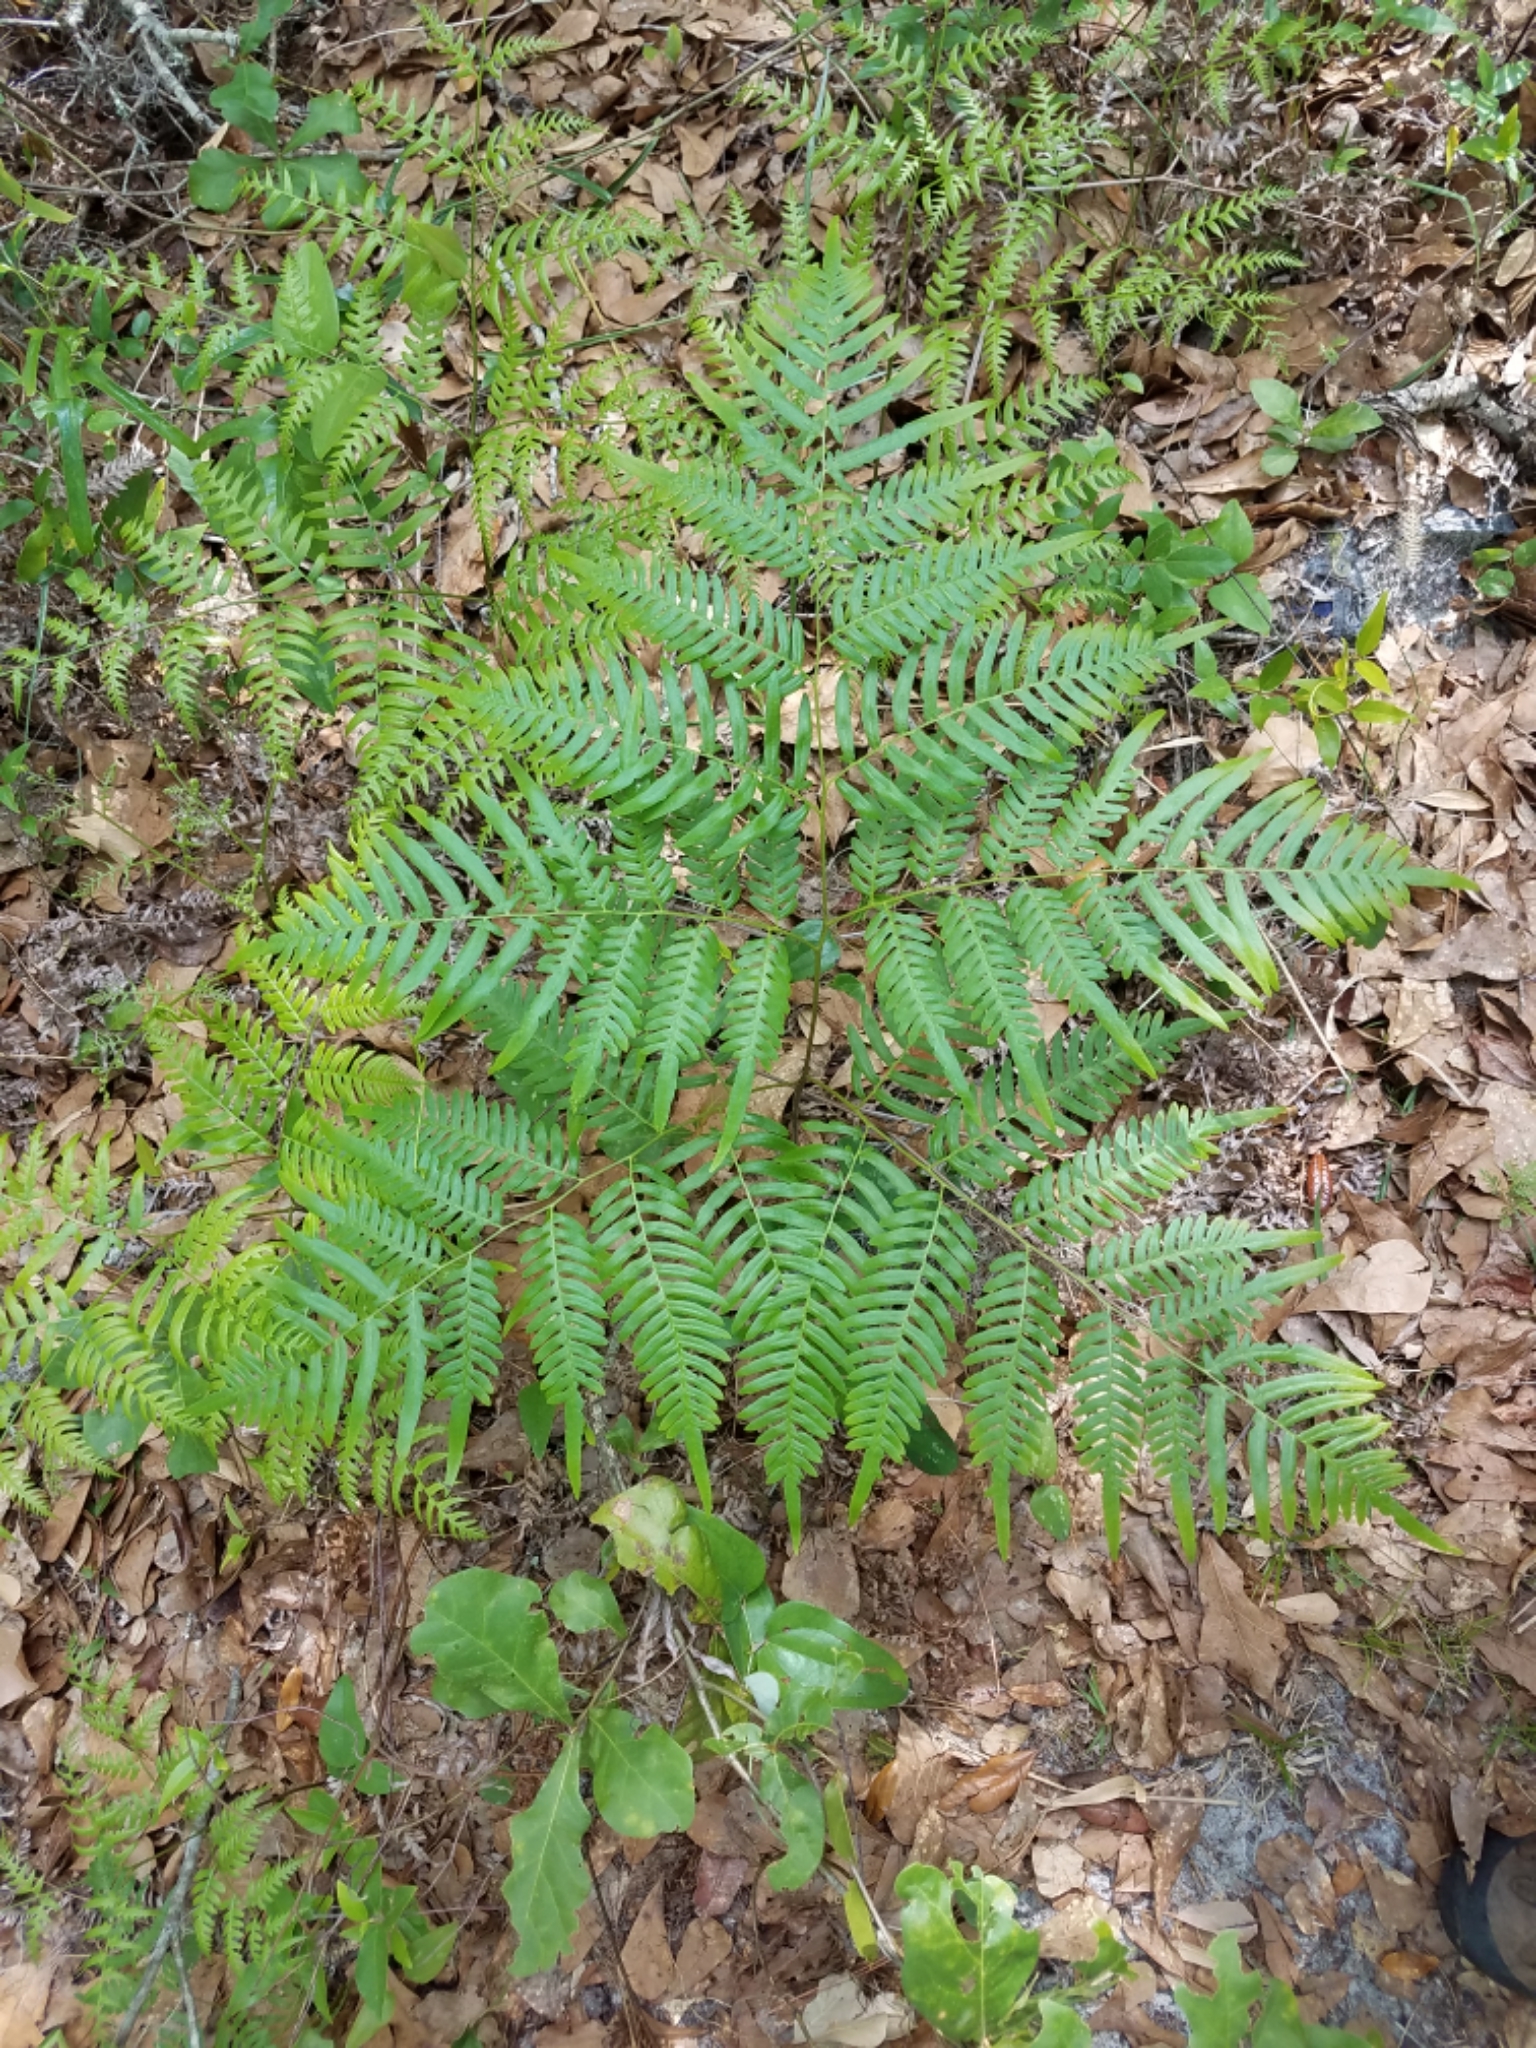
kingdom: Plantae
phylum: Tracheophyta
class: Polypodiopsida
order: Polypodiales
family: Dennstaedtiaceae
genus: Pteridium
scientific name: Pteridium aquilinum
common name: Bracken
